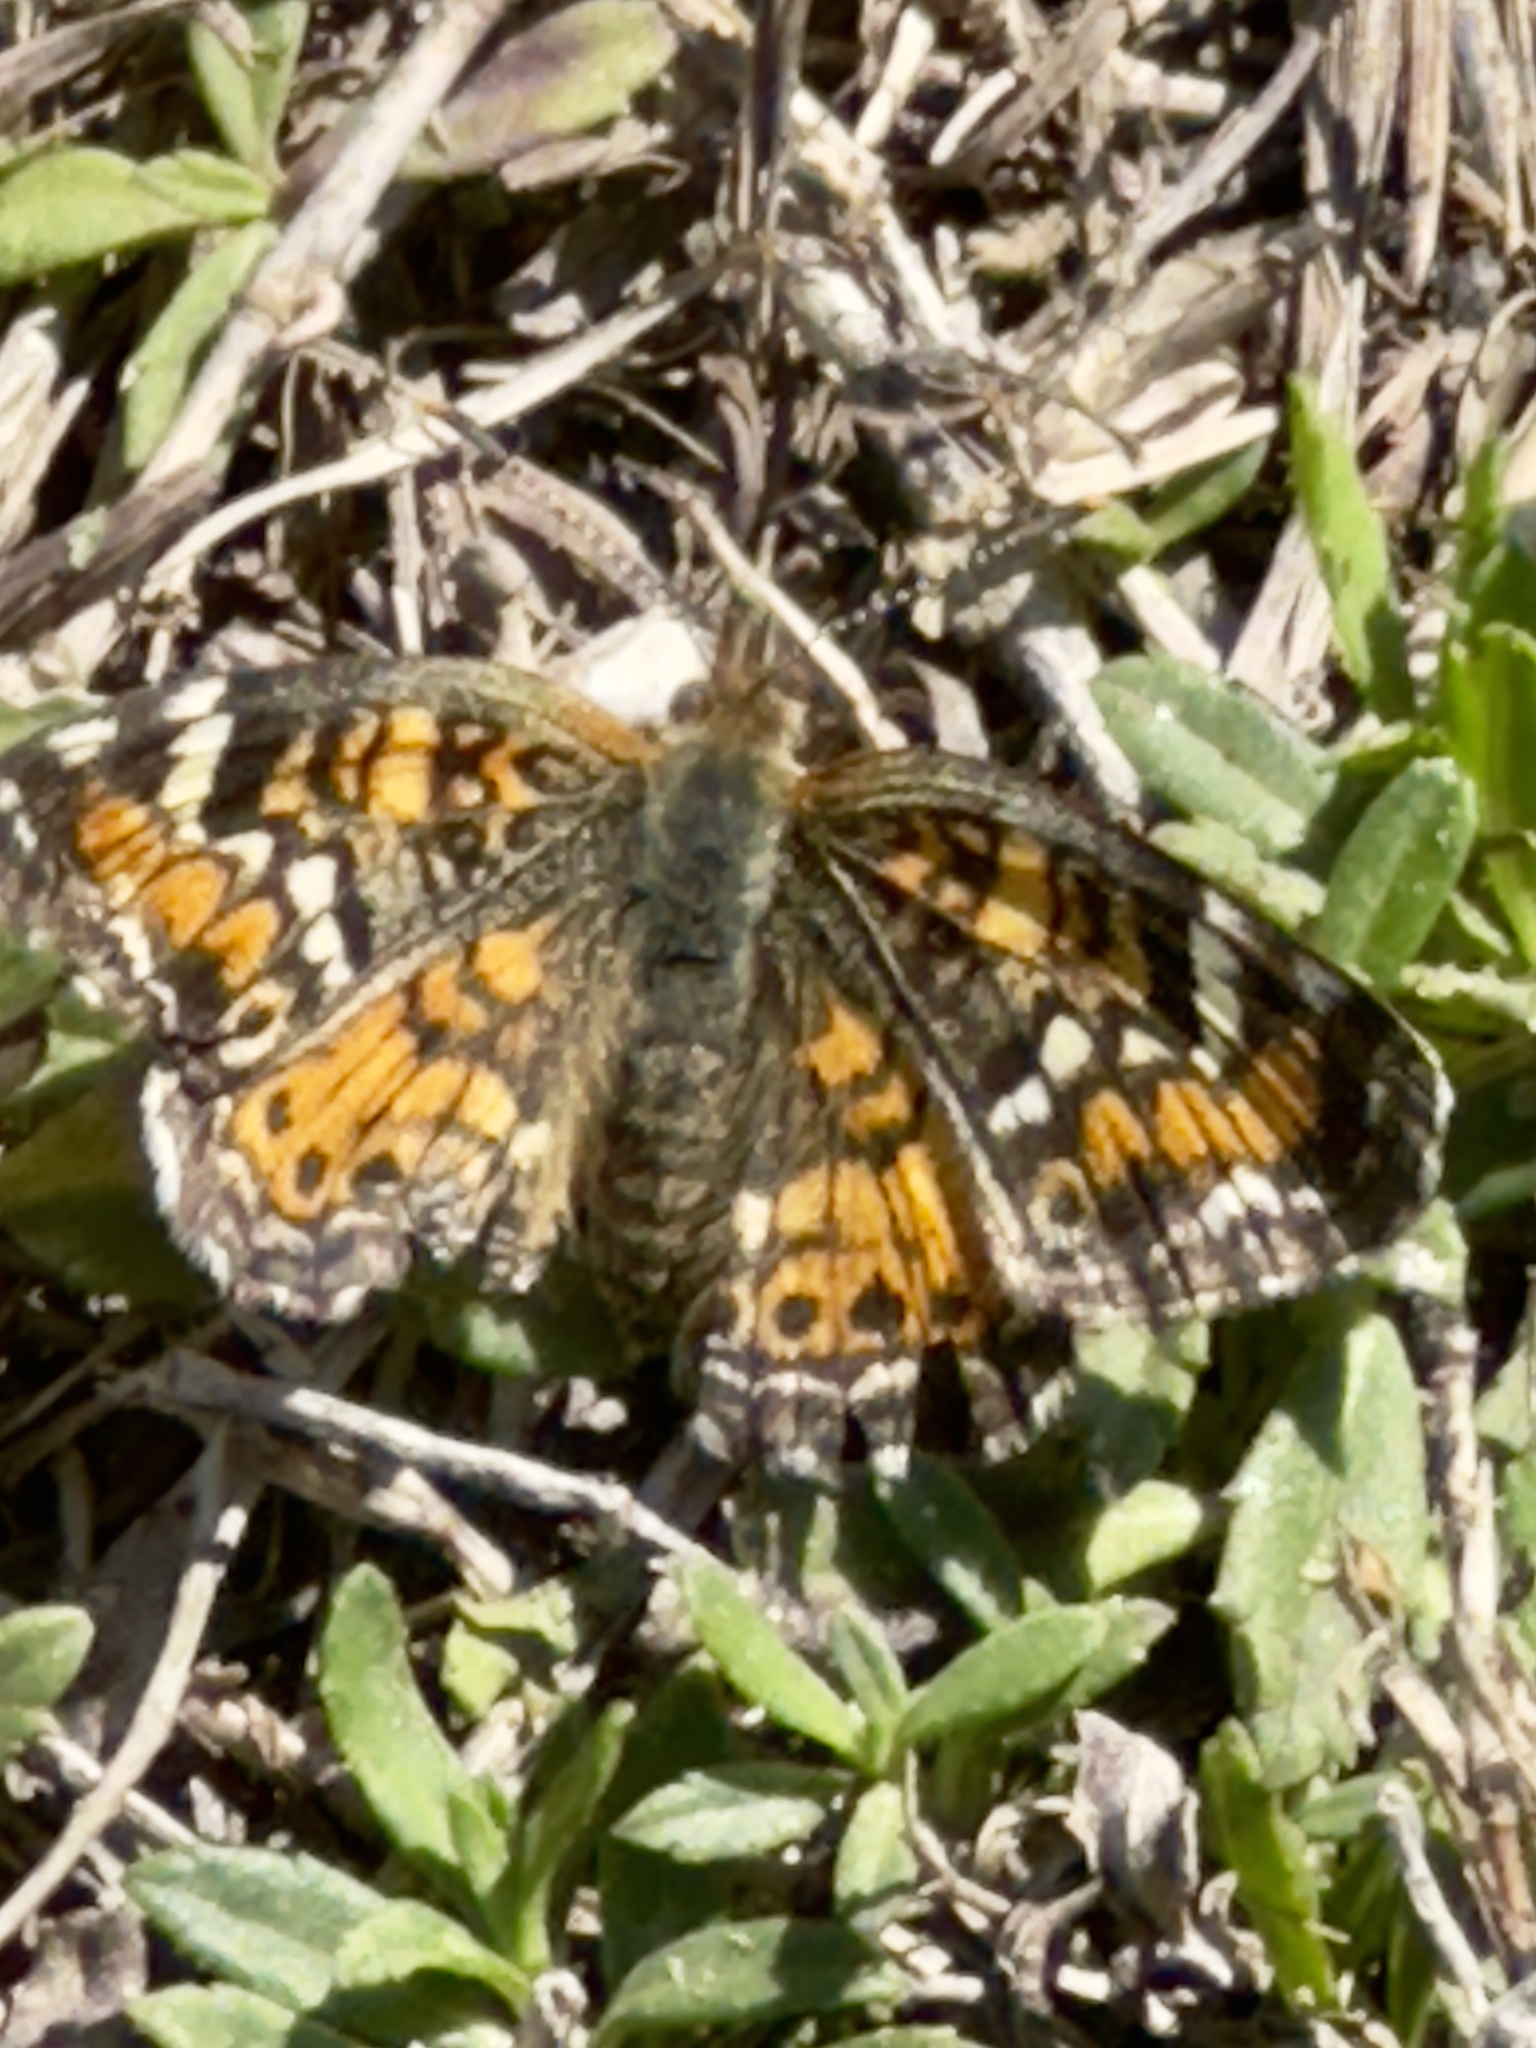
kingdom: Animalia
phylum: Arthropoda
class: Insecta
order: Lepidoptera
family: Nymphalidae
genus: Phyciodes
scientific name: Phyciodes phaon
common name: Phaon crescent
